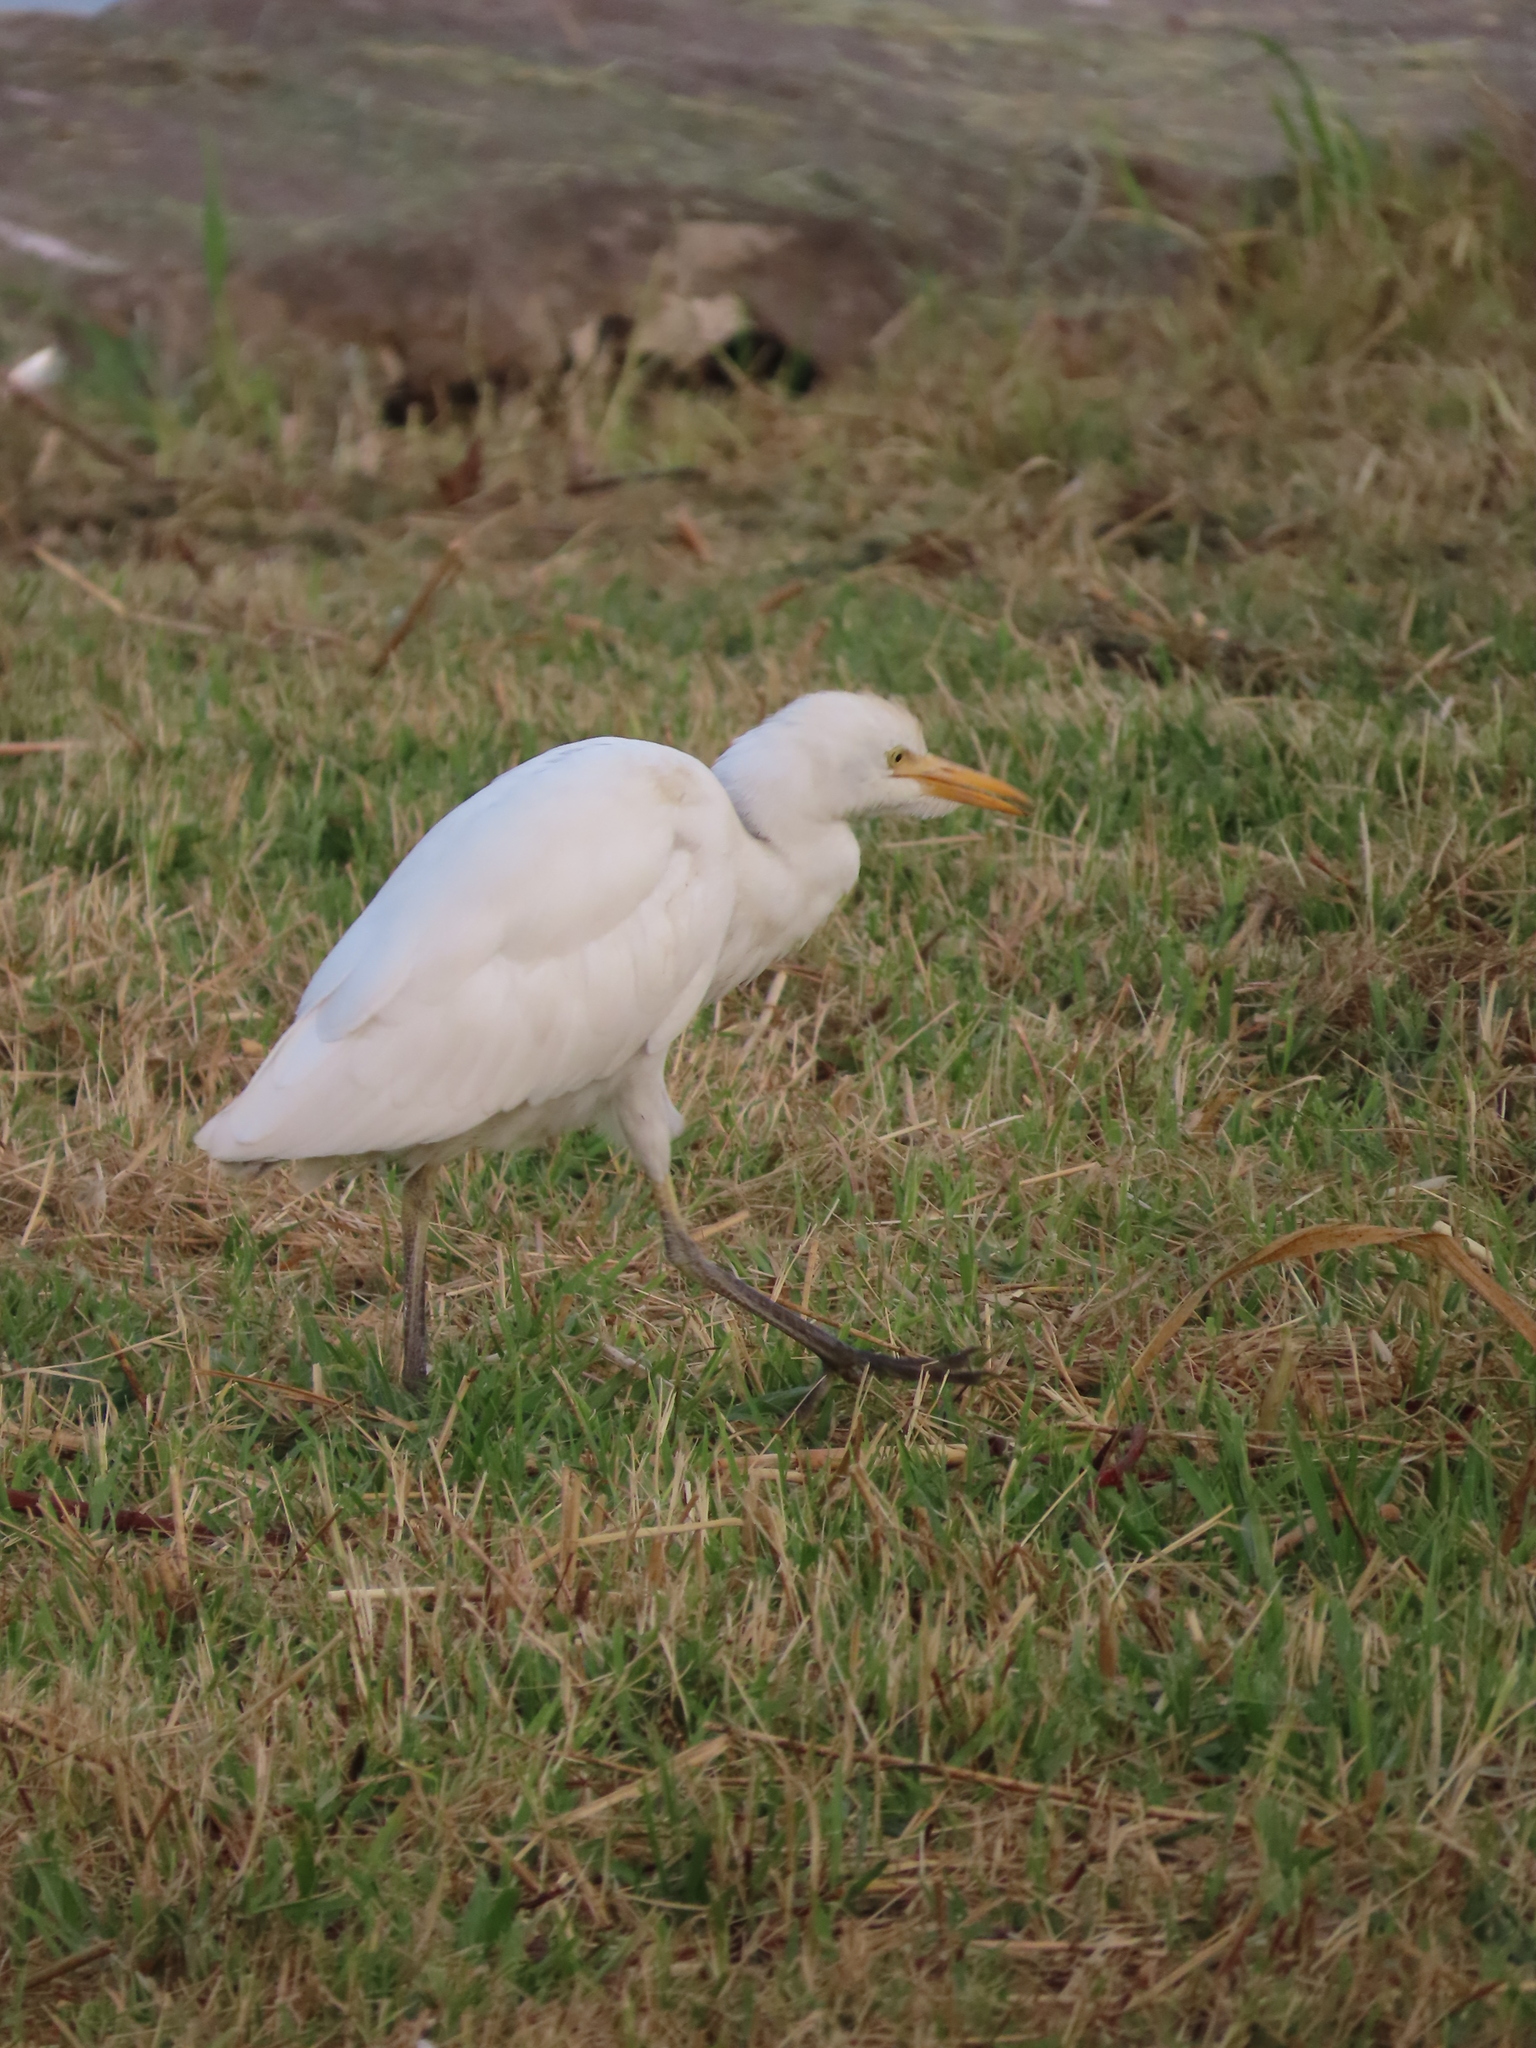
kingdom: Animalia
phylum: Chordata
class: Aves
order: Pelecaniformes
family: Ardeidae
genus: Bubulcus
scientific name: Bubulcus ibis
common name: Cattle egret
